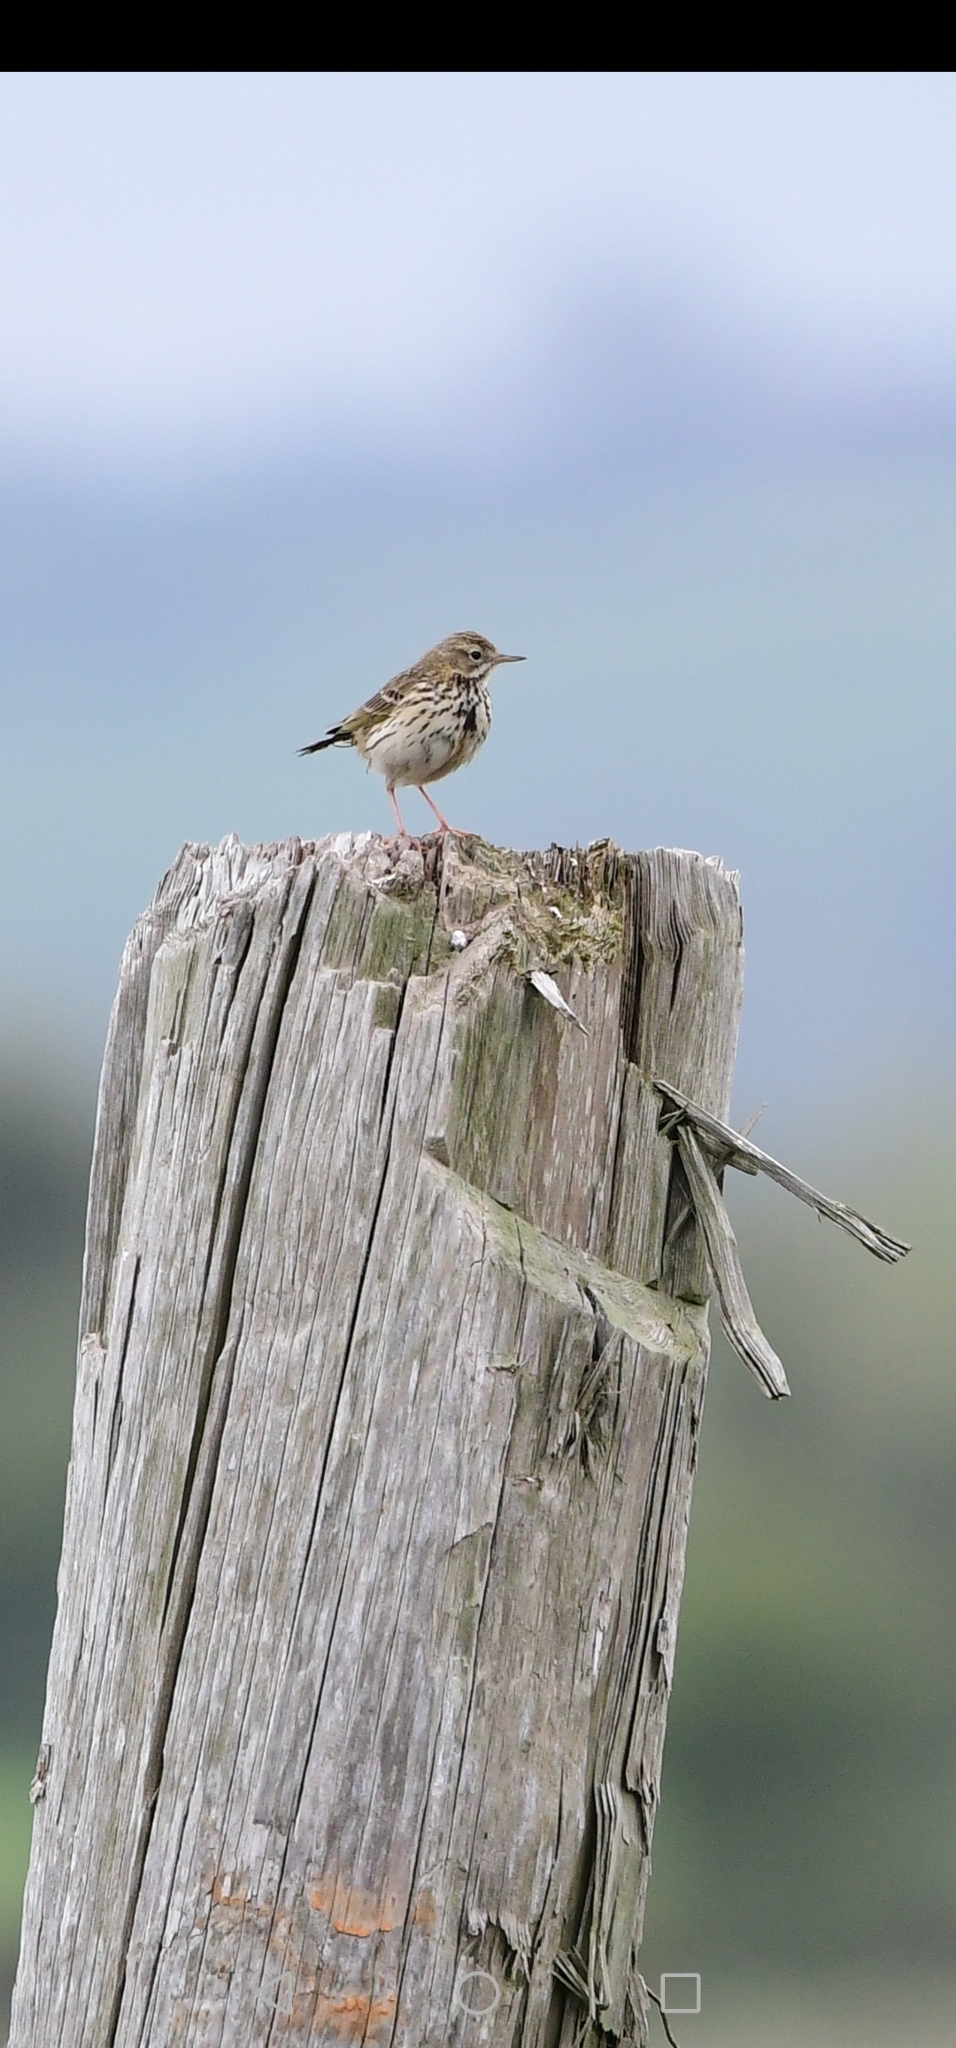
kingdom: Animalia
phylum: Chordata
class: Aves
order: Passeriformes
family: Motacillidae
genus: Anthus
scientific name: Anthus pratensis
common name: Meadow pipit
